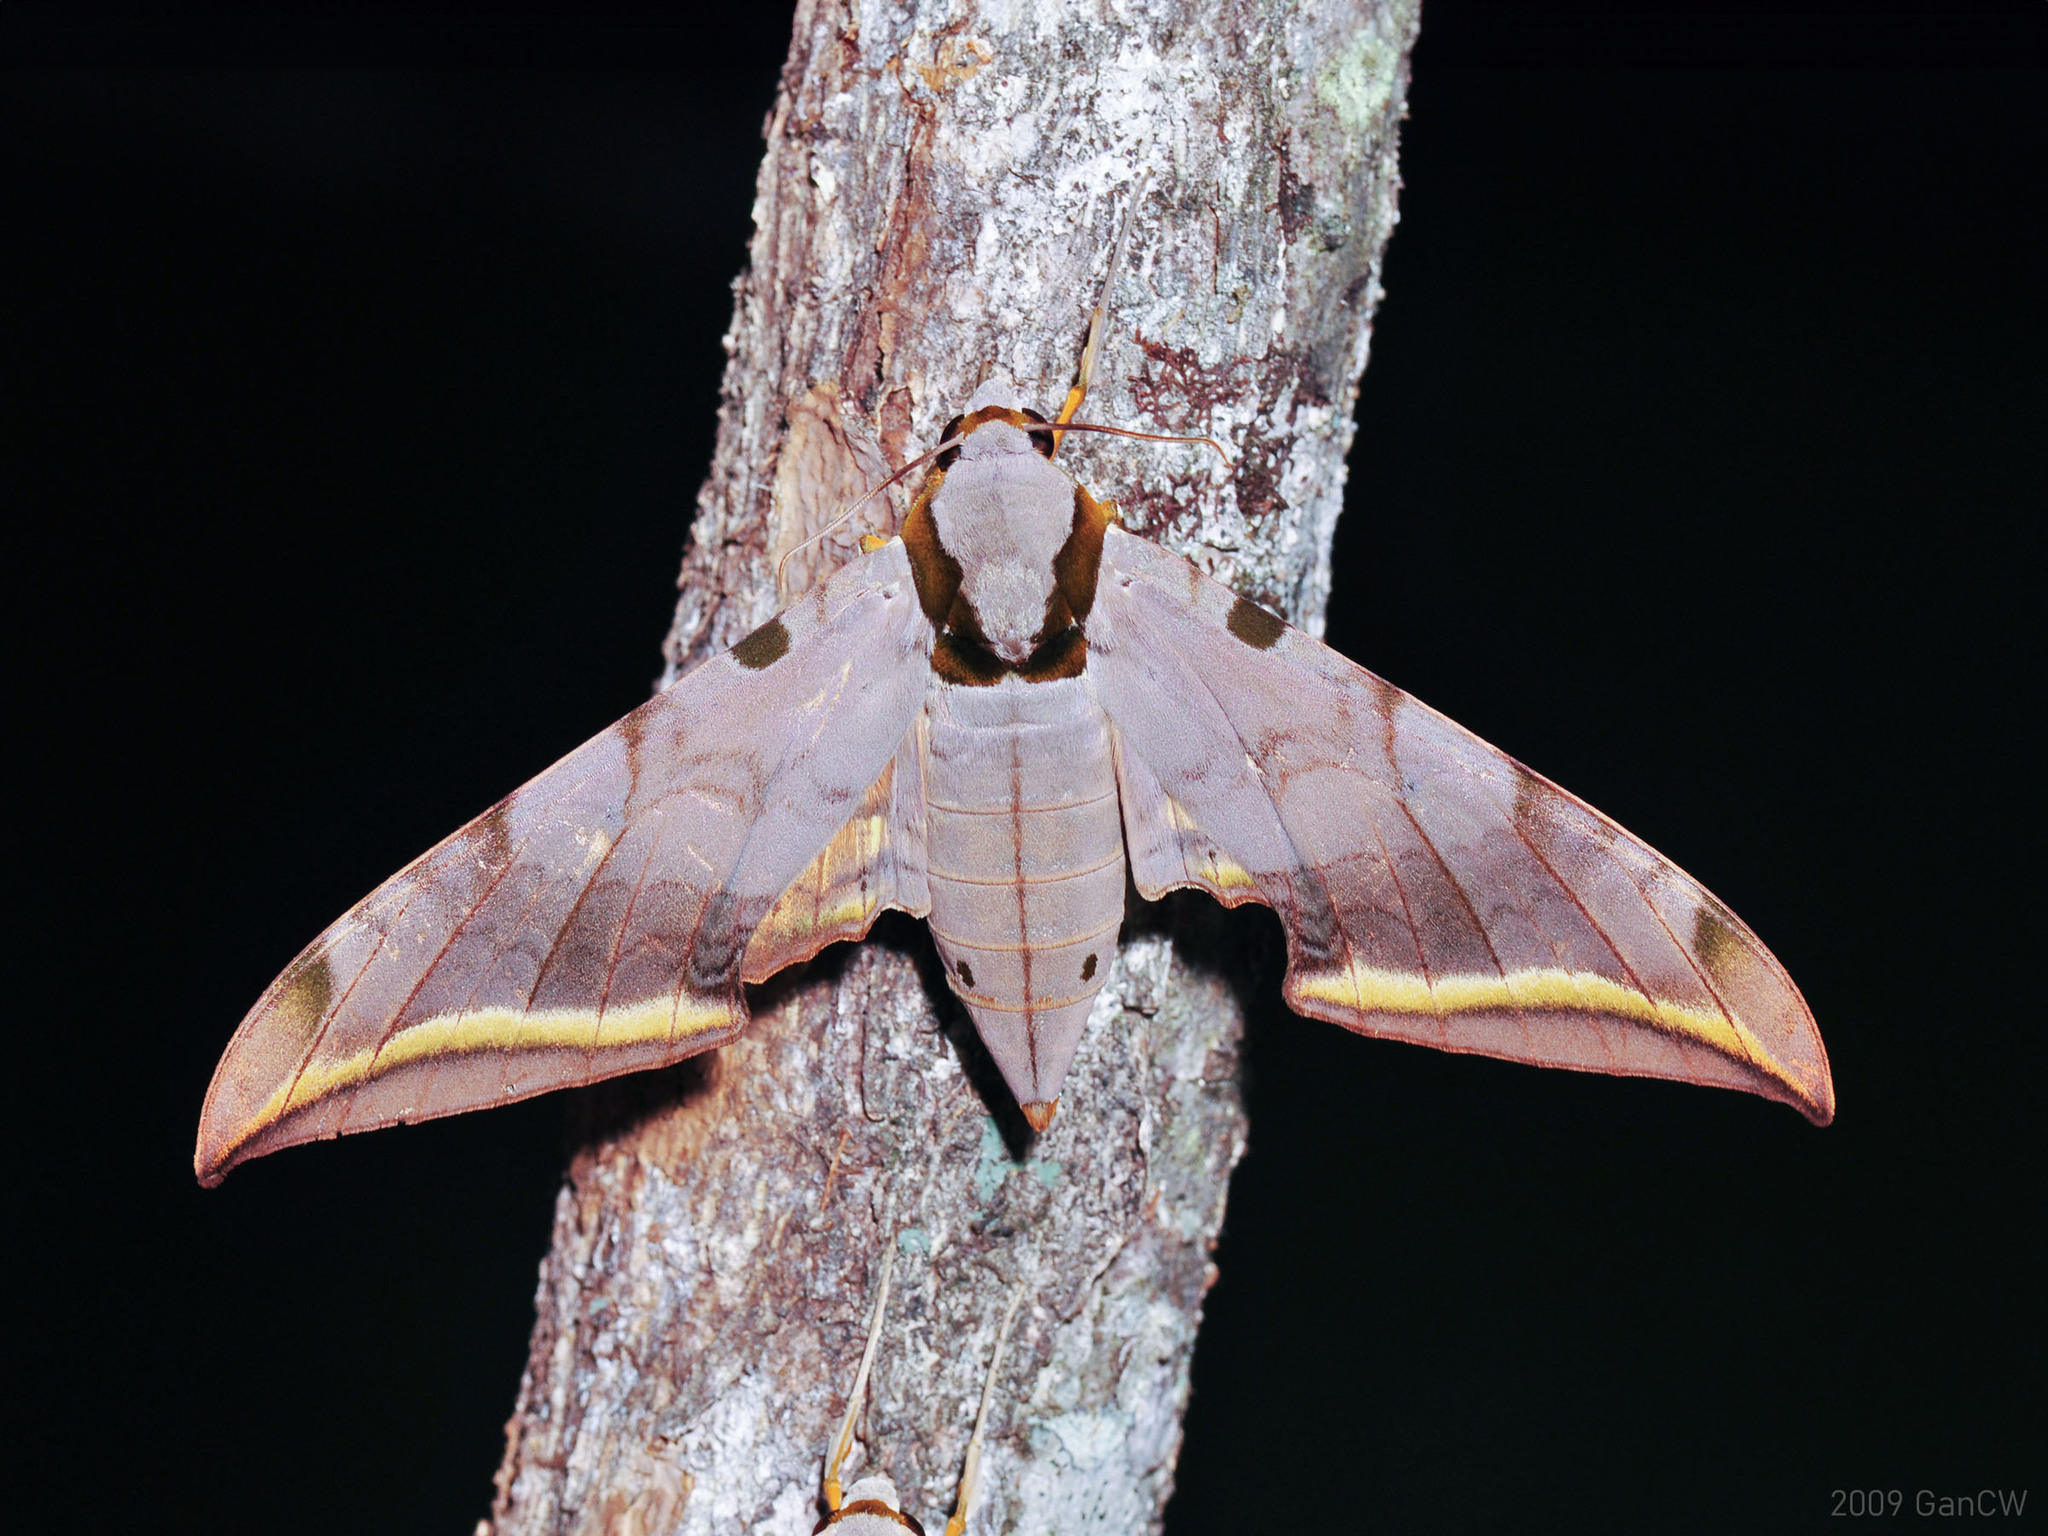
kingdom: Animalia
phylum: Arthropoda
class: Insecta
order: Lepidoptera
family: Sphingidae
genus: Ambulyx
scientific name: Ambulyx sericeipennis
